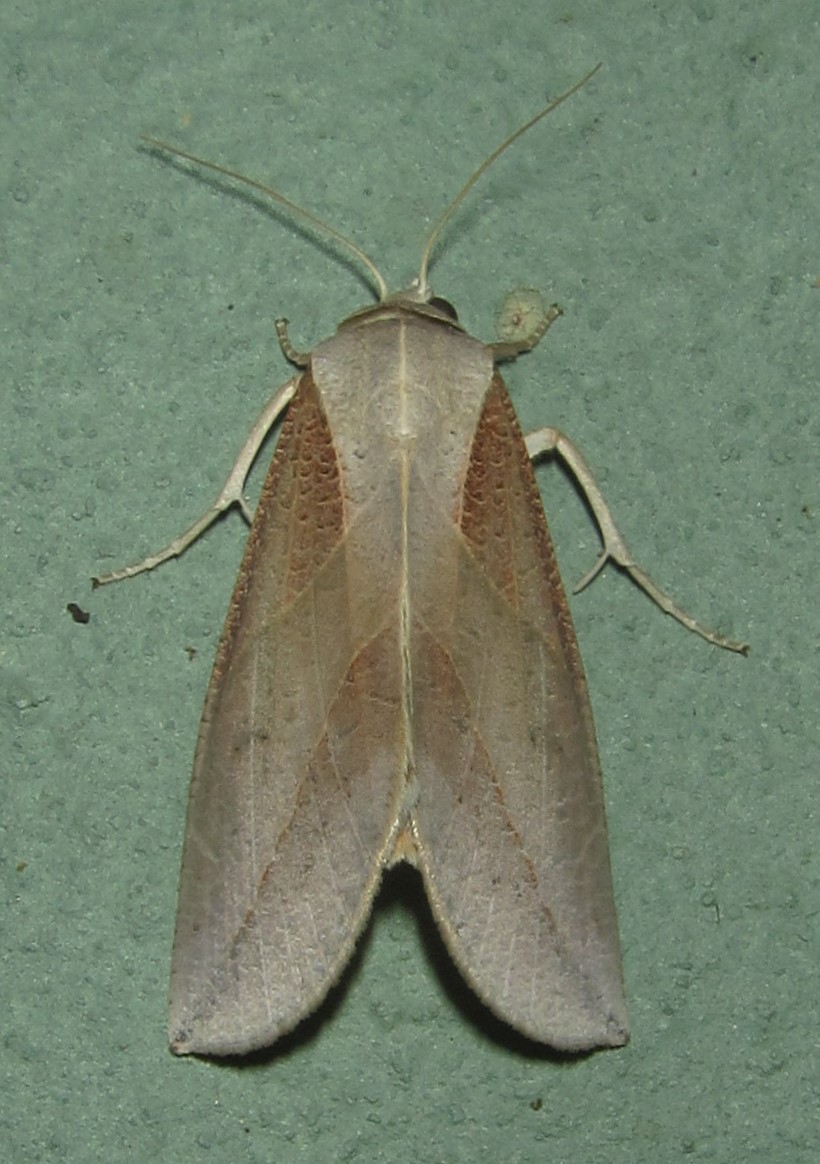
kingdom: Animalia
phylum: Arthropoda
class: Insecta
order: Lepidoptera
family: Nolidae
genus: Arcyophora
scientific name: Arcyophora patricula
